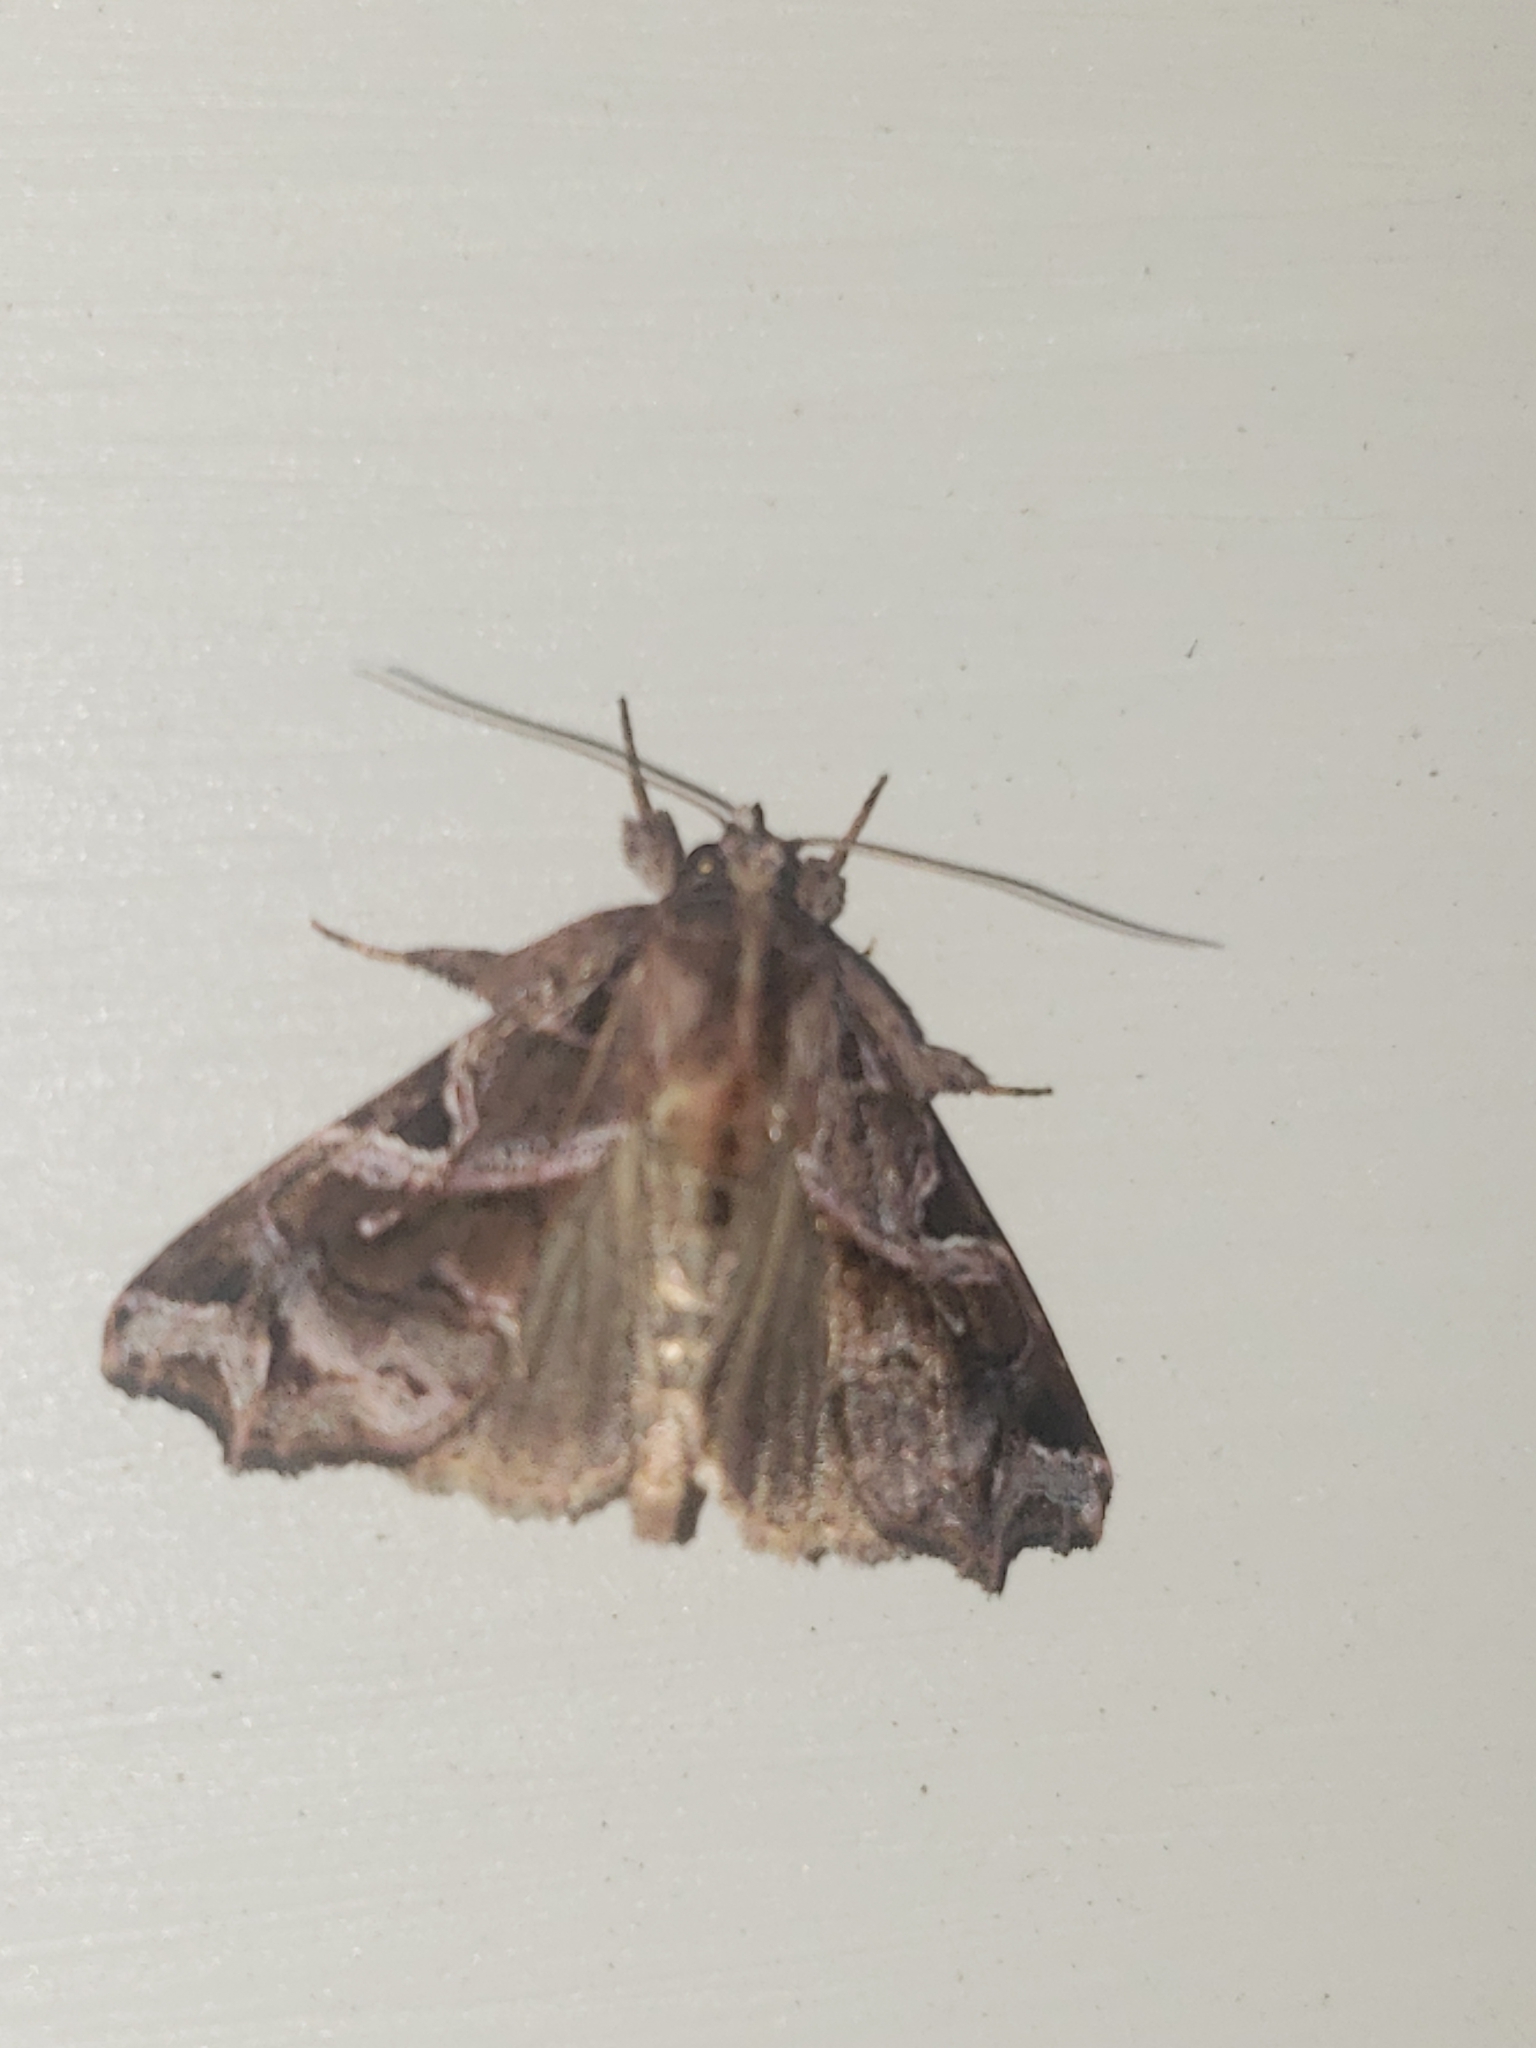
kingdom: Animalia
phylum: Arthropoda
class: Insecta
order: Lepidoptera
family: Noctuidae
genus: Callopistria
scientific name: Callopistria floridensis
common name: Florida fern moth
